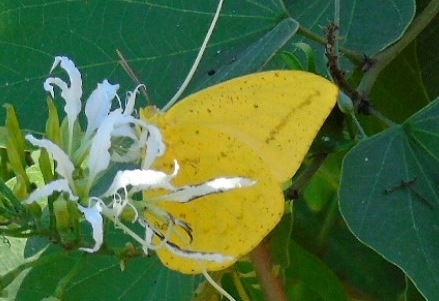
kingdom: Animalia
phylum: Arthropoda
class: Insecta
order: Lepidoptera
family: Pieridae
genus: Phoebis
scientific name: Phoebis agarithe
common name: Large orange sulphur
